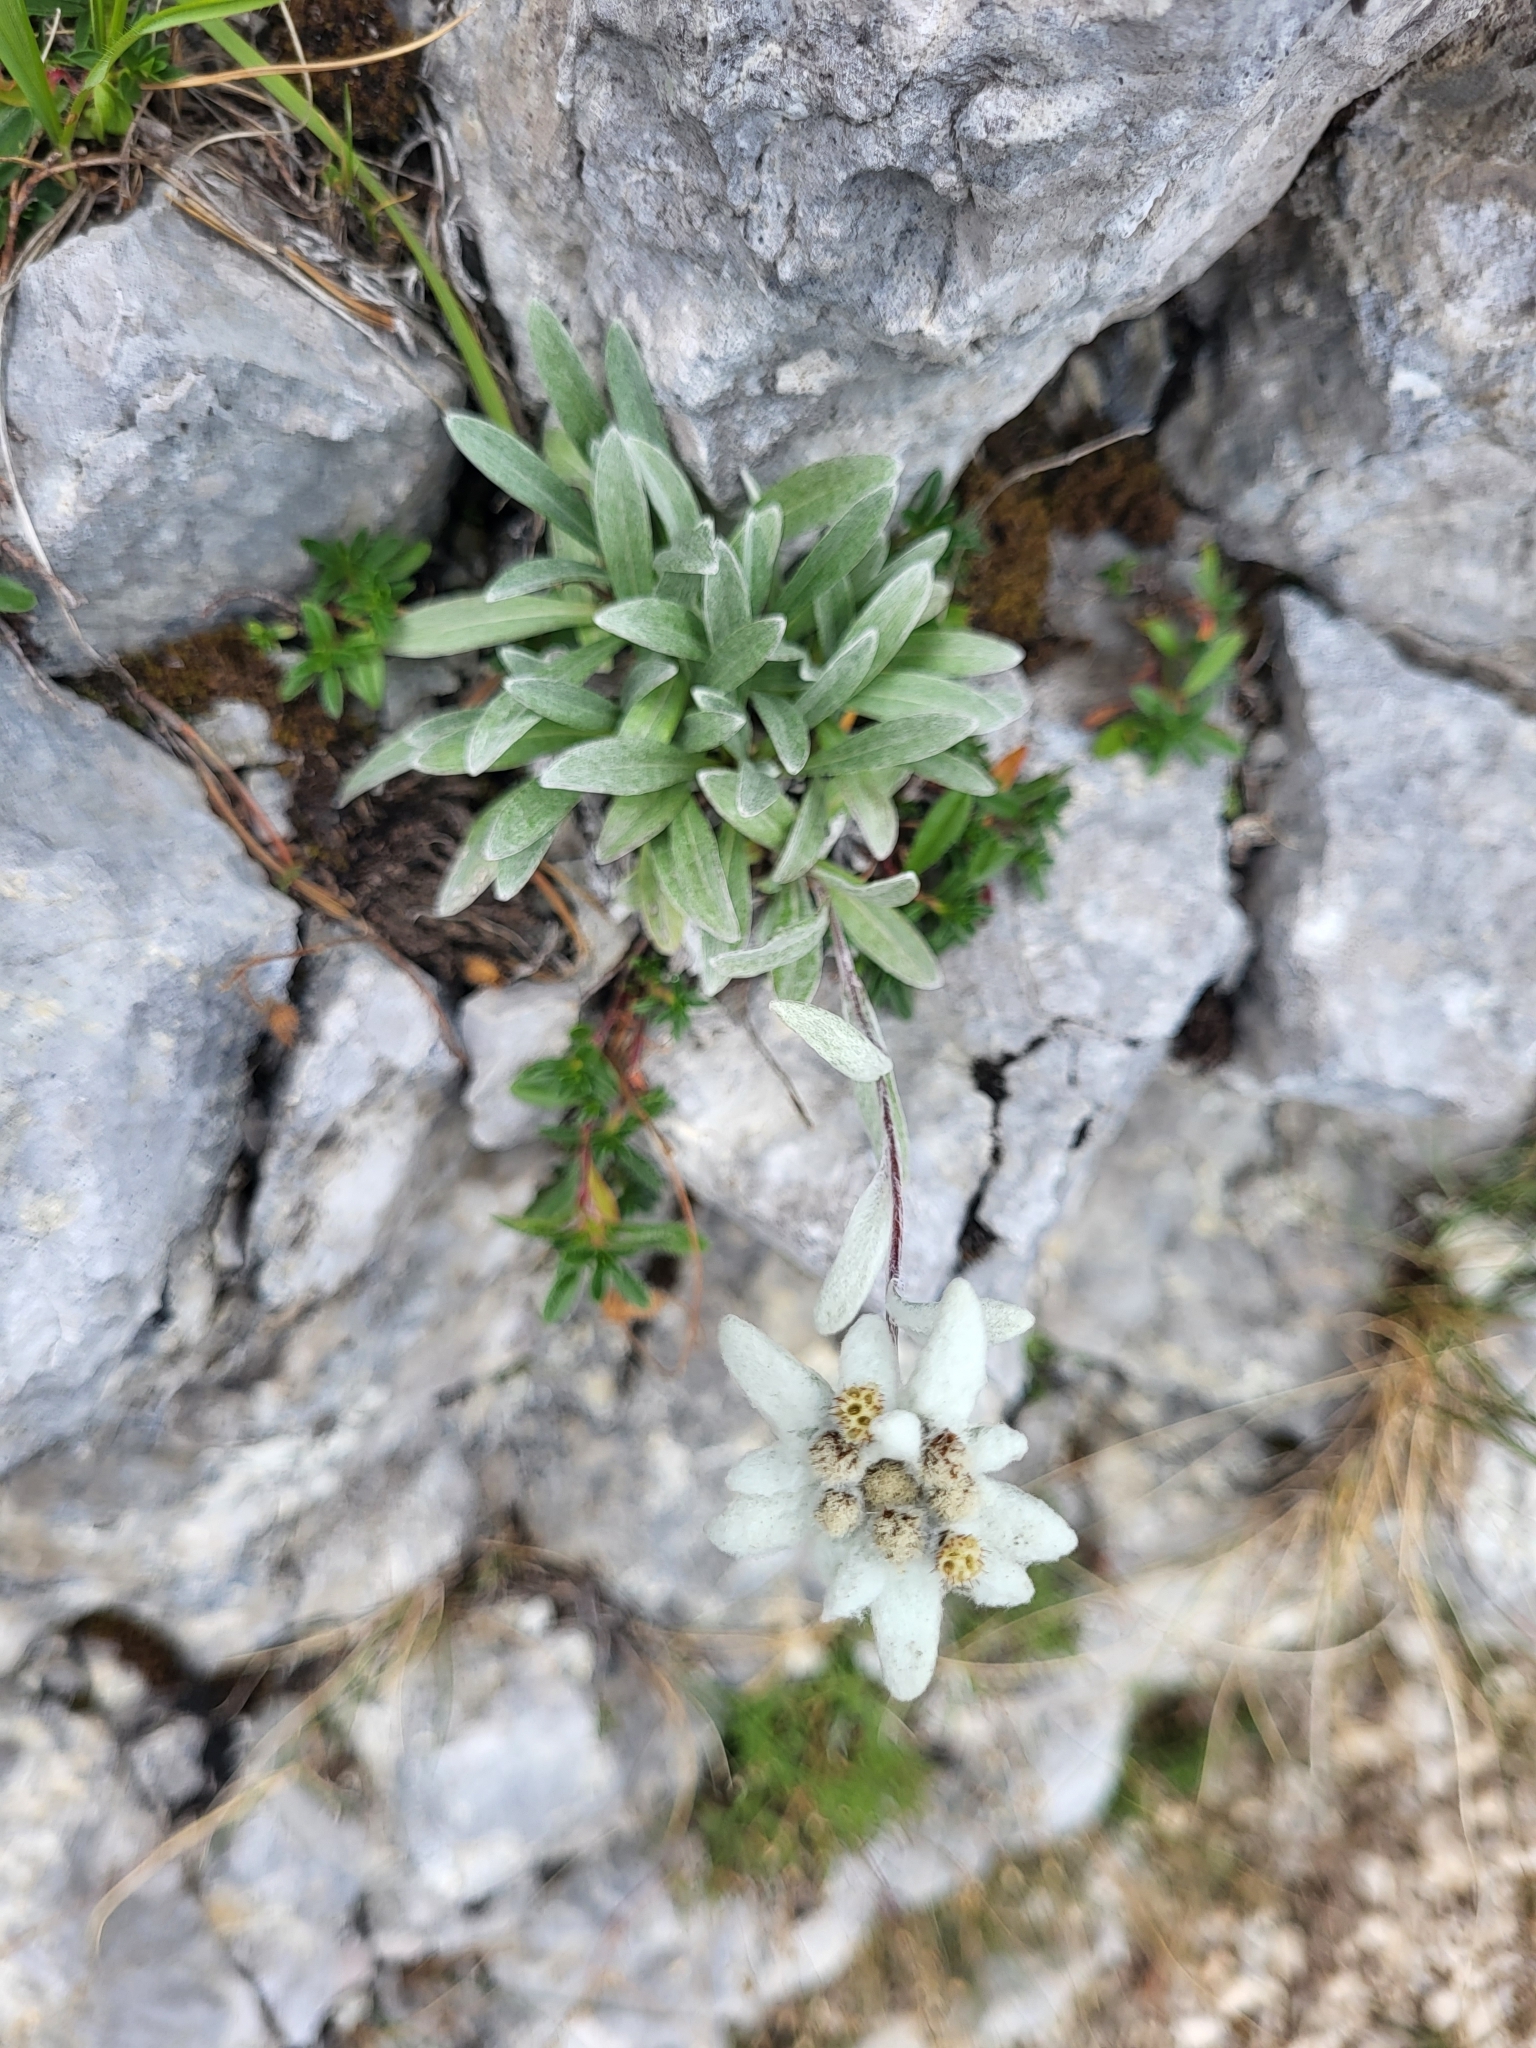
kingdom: Plantae
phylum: Tracheophyta
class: Magnoliopsida
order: Asterales
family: Asteraceae
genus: Leontopodium
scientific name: Leontopodium nivale
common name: Edelweiss
